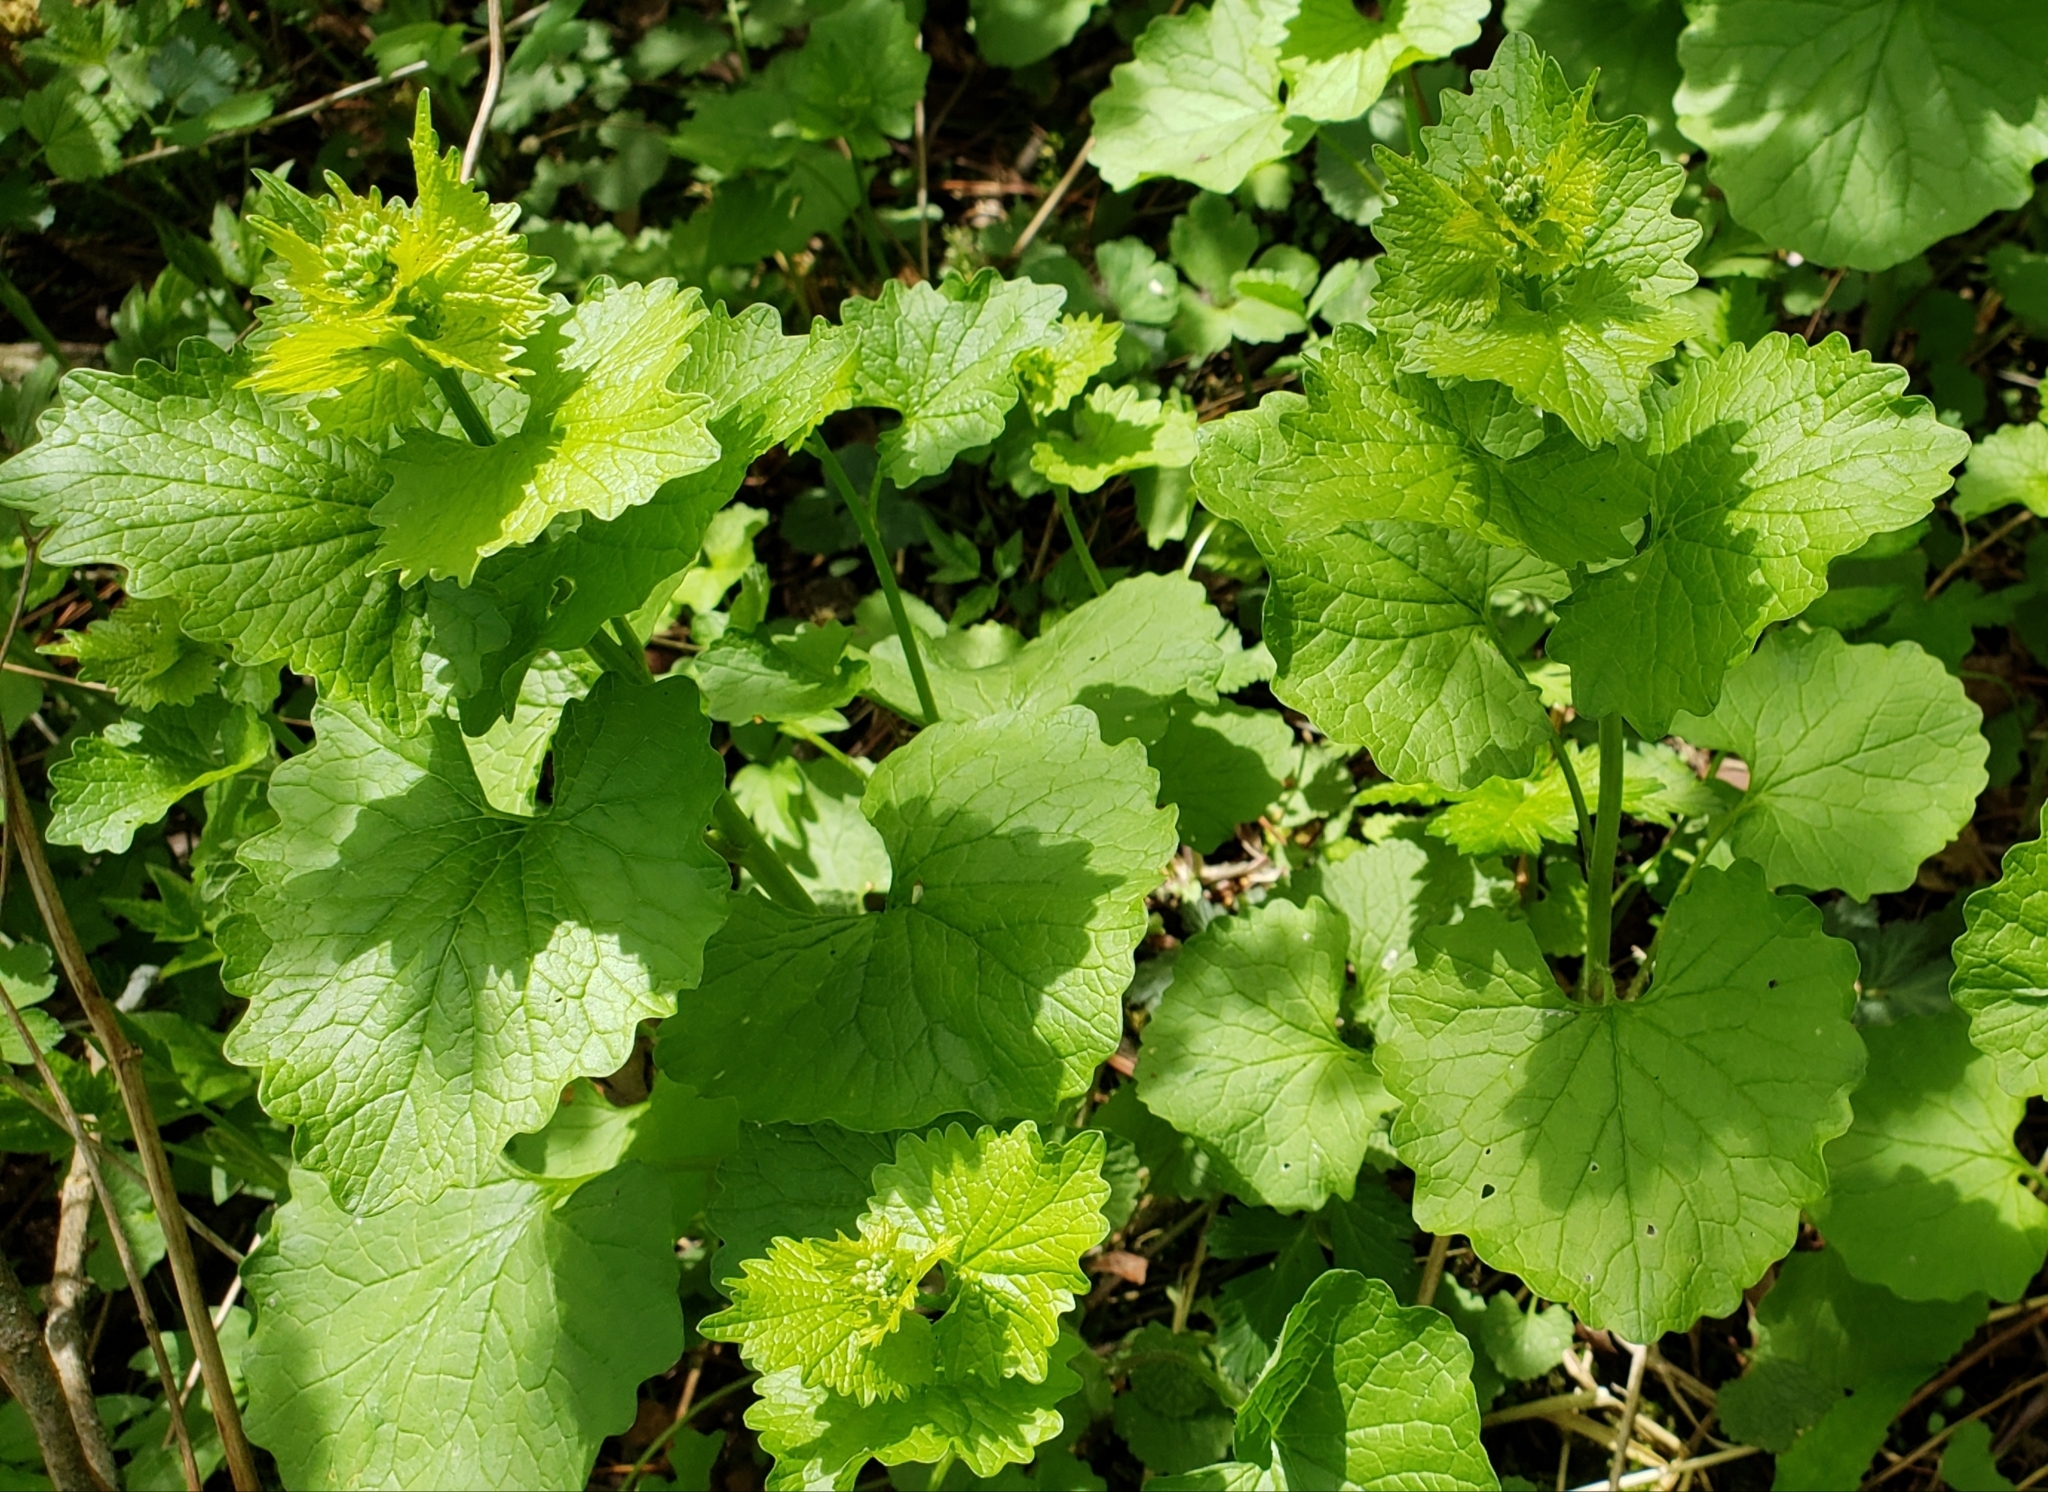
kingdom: Plantae
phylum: Tracheophyta
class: Magnoliopsida
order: Brassicales
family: Brassicaceae
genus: Alliaria
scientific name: Alliaria petiolata
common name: Garlic mustard
